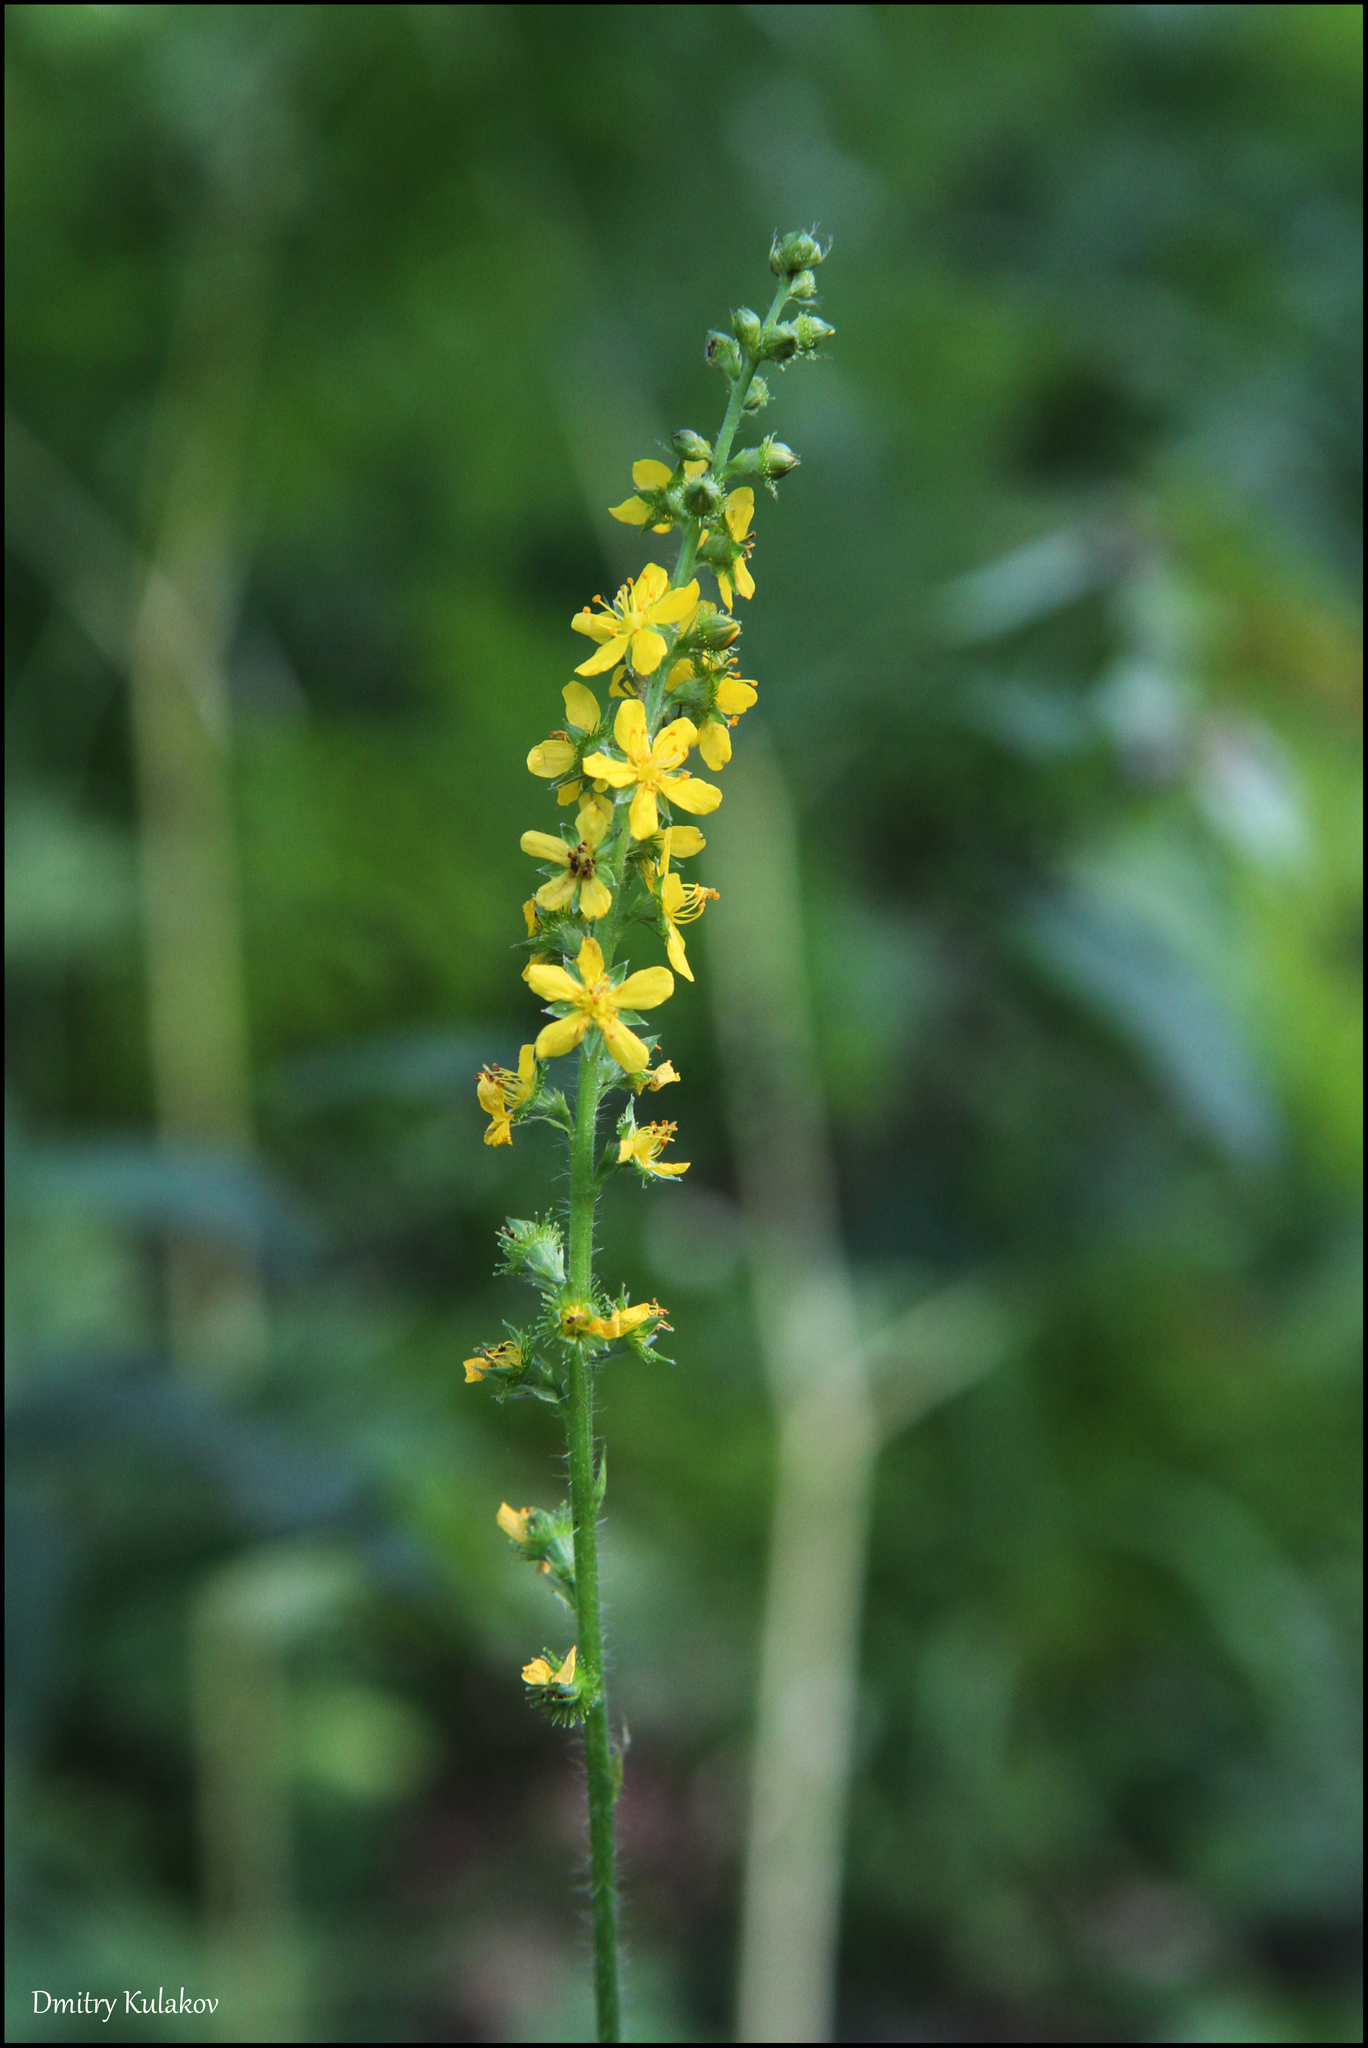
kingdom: Plantae
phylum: Tracheophyta
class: Magnoliopsida
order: Rosales
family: Rosaceae
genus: Agrimonia
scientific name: Agrimonia pilosa
